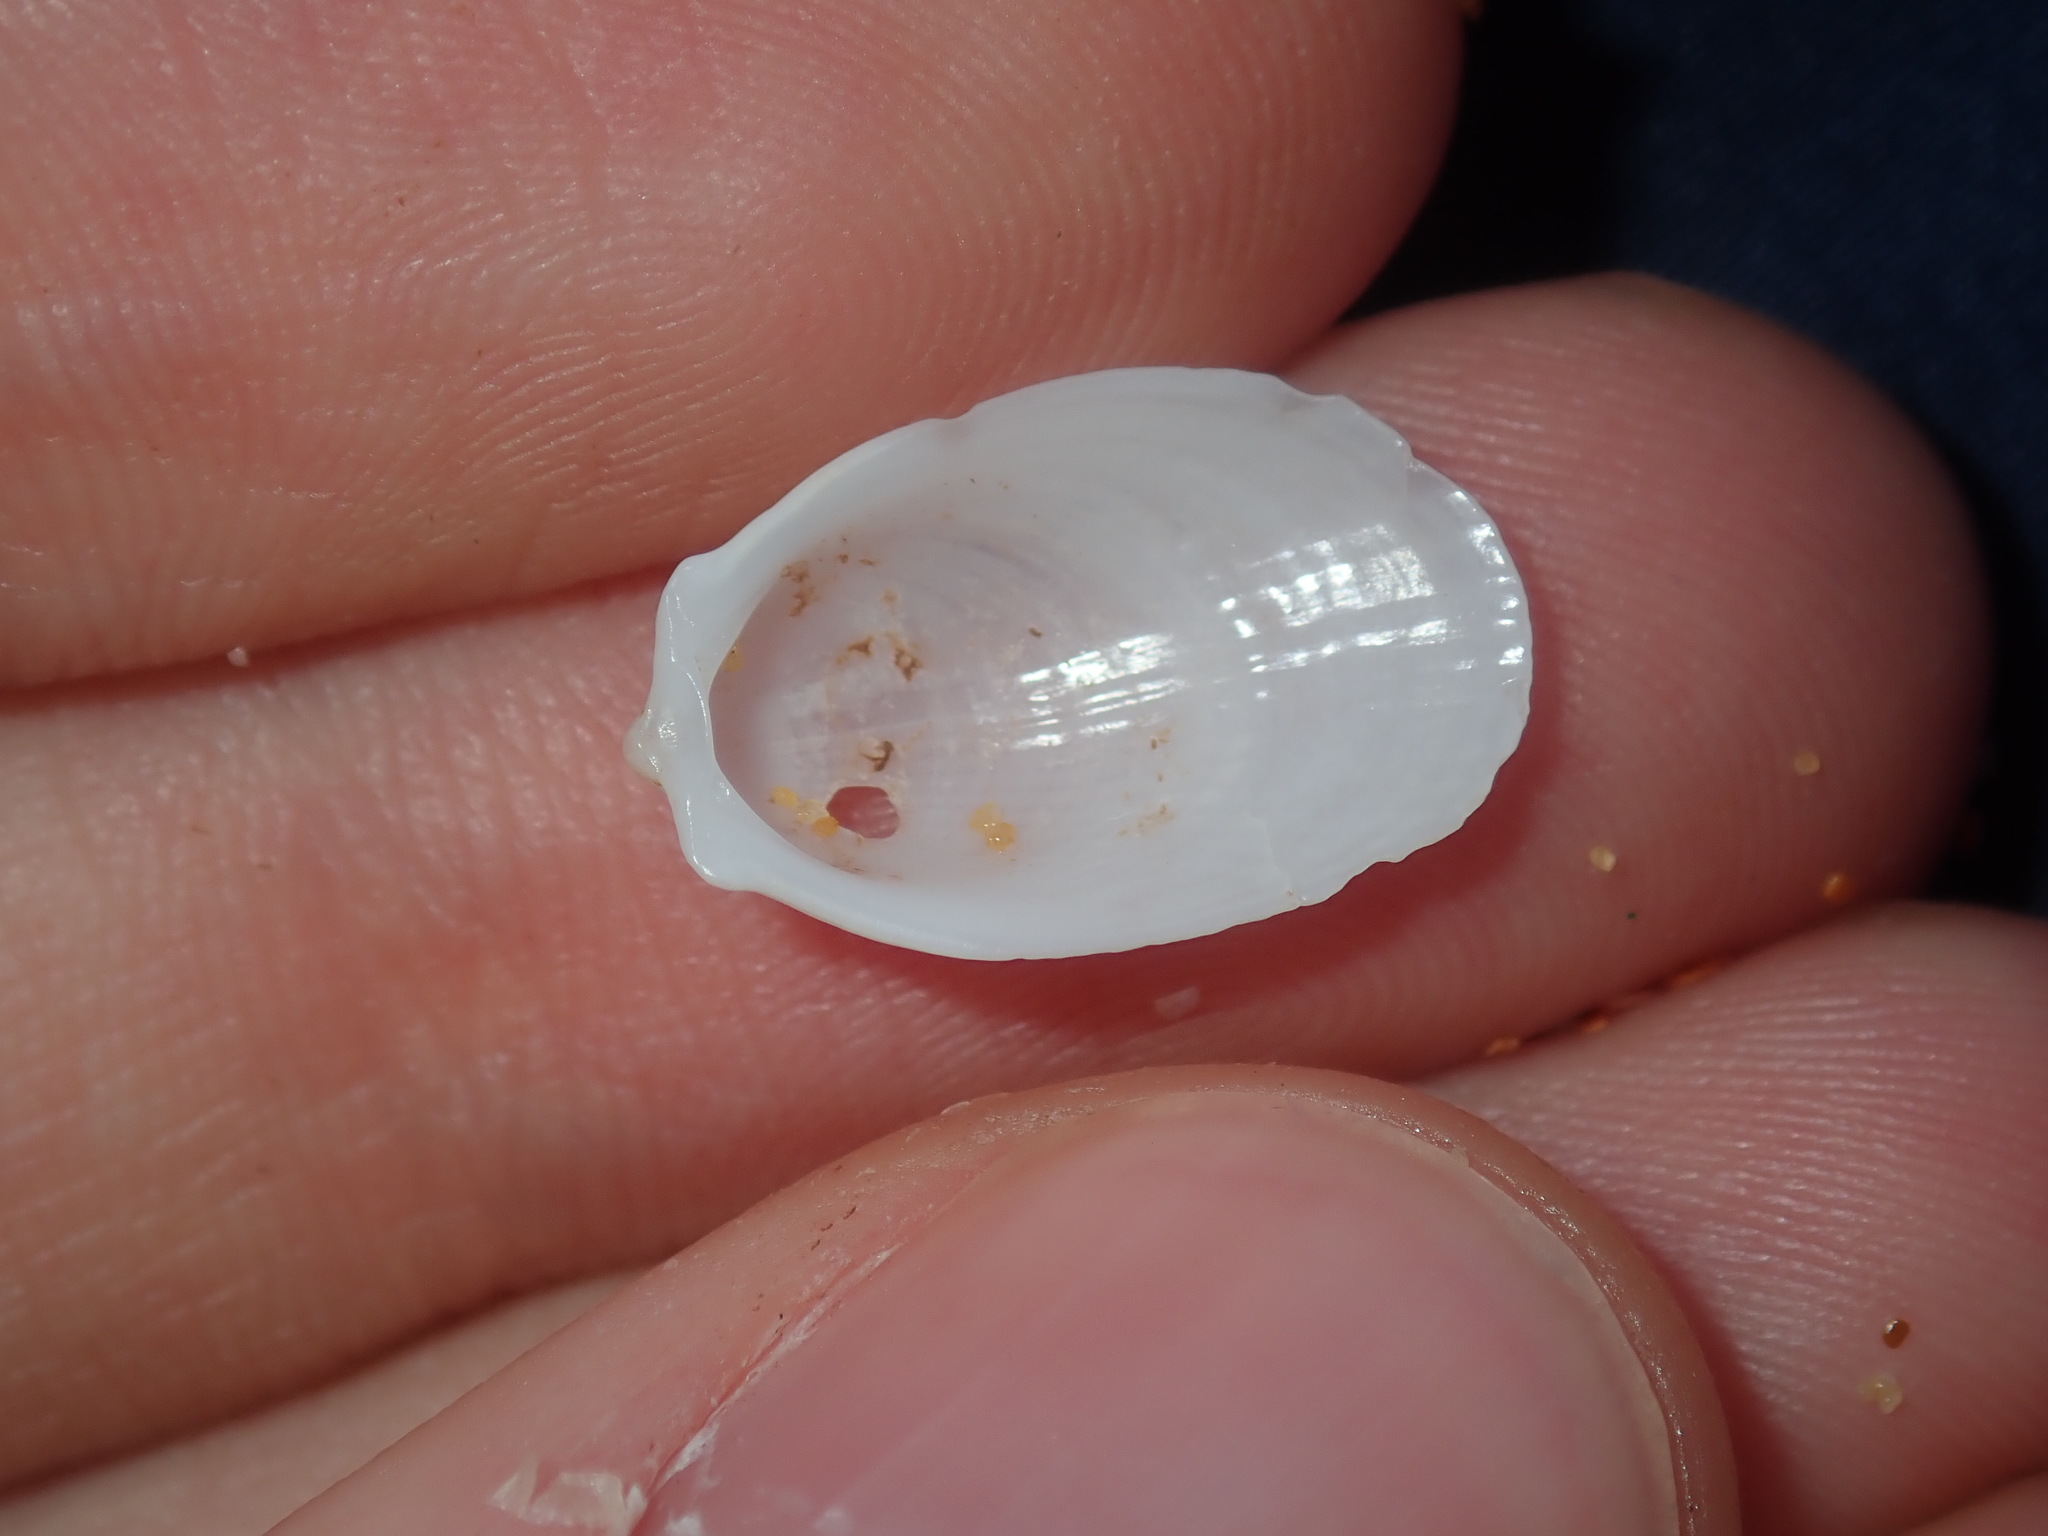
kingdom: Animalia
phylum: Mollusca
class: Bivalvia
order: Limida
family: Limidae
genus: Limatula
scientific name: Limatula strangei
